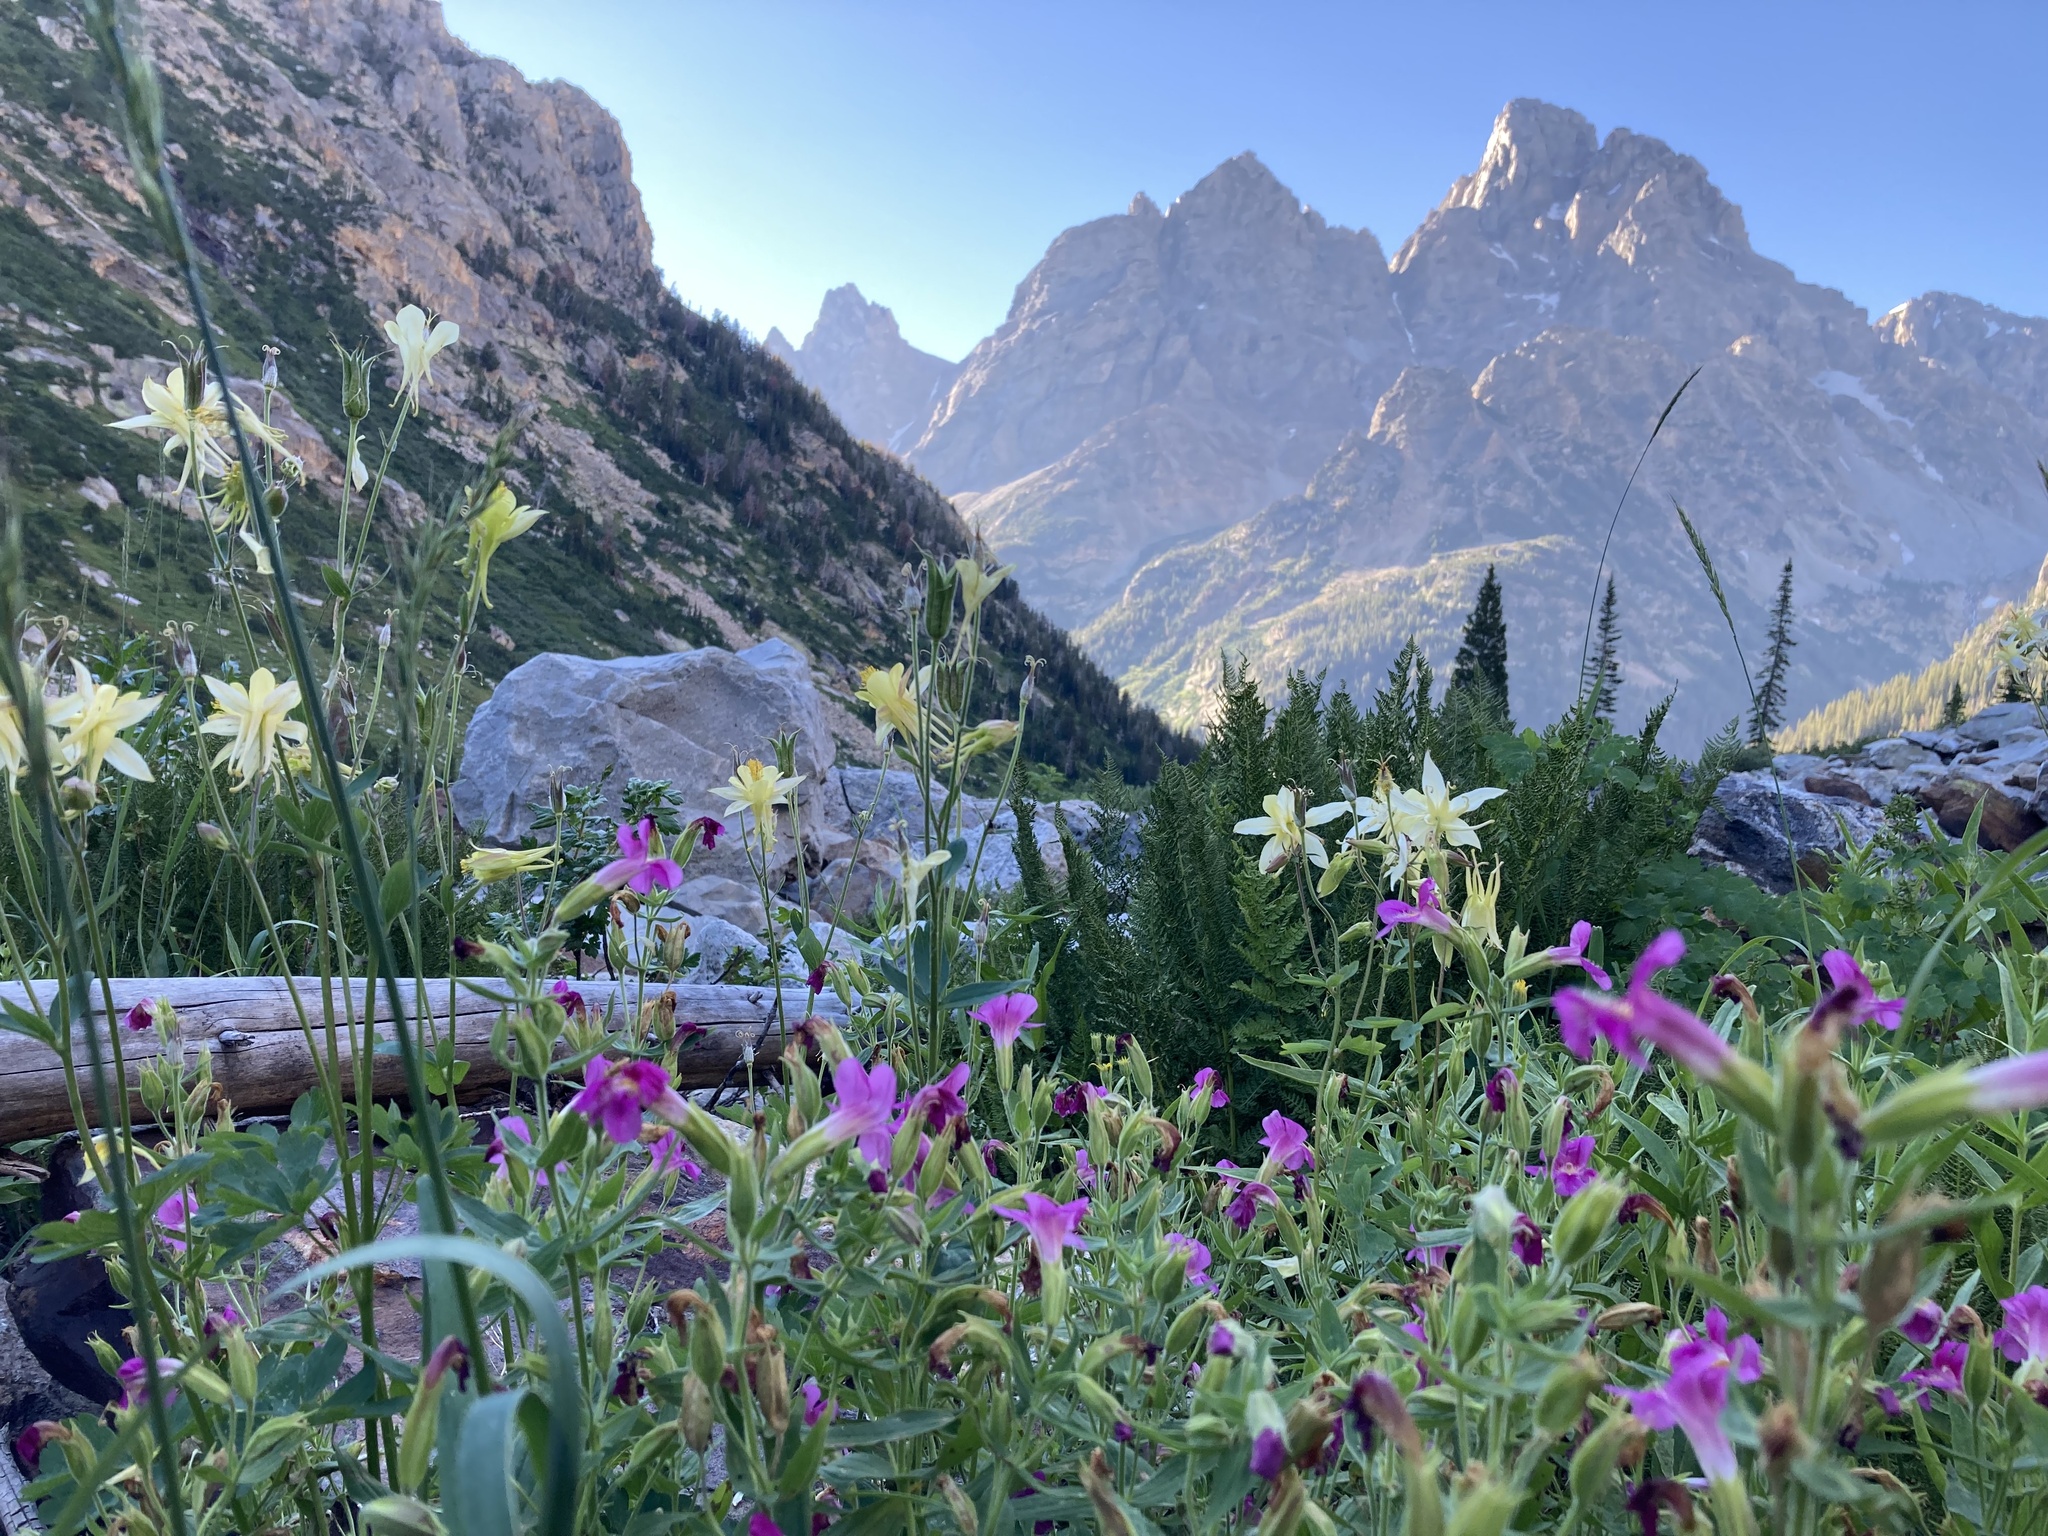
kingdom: Plantae
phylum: Tracheophyta
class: Magnoliopsida
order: Lamiales
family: Phrymaceae
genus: Erythranthe
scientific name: Erythranthe lewisii
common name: Lewis's monkey-flower
